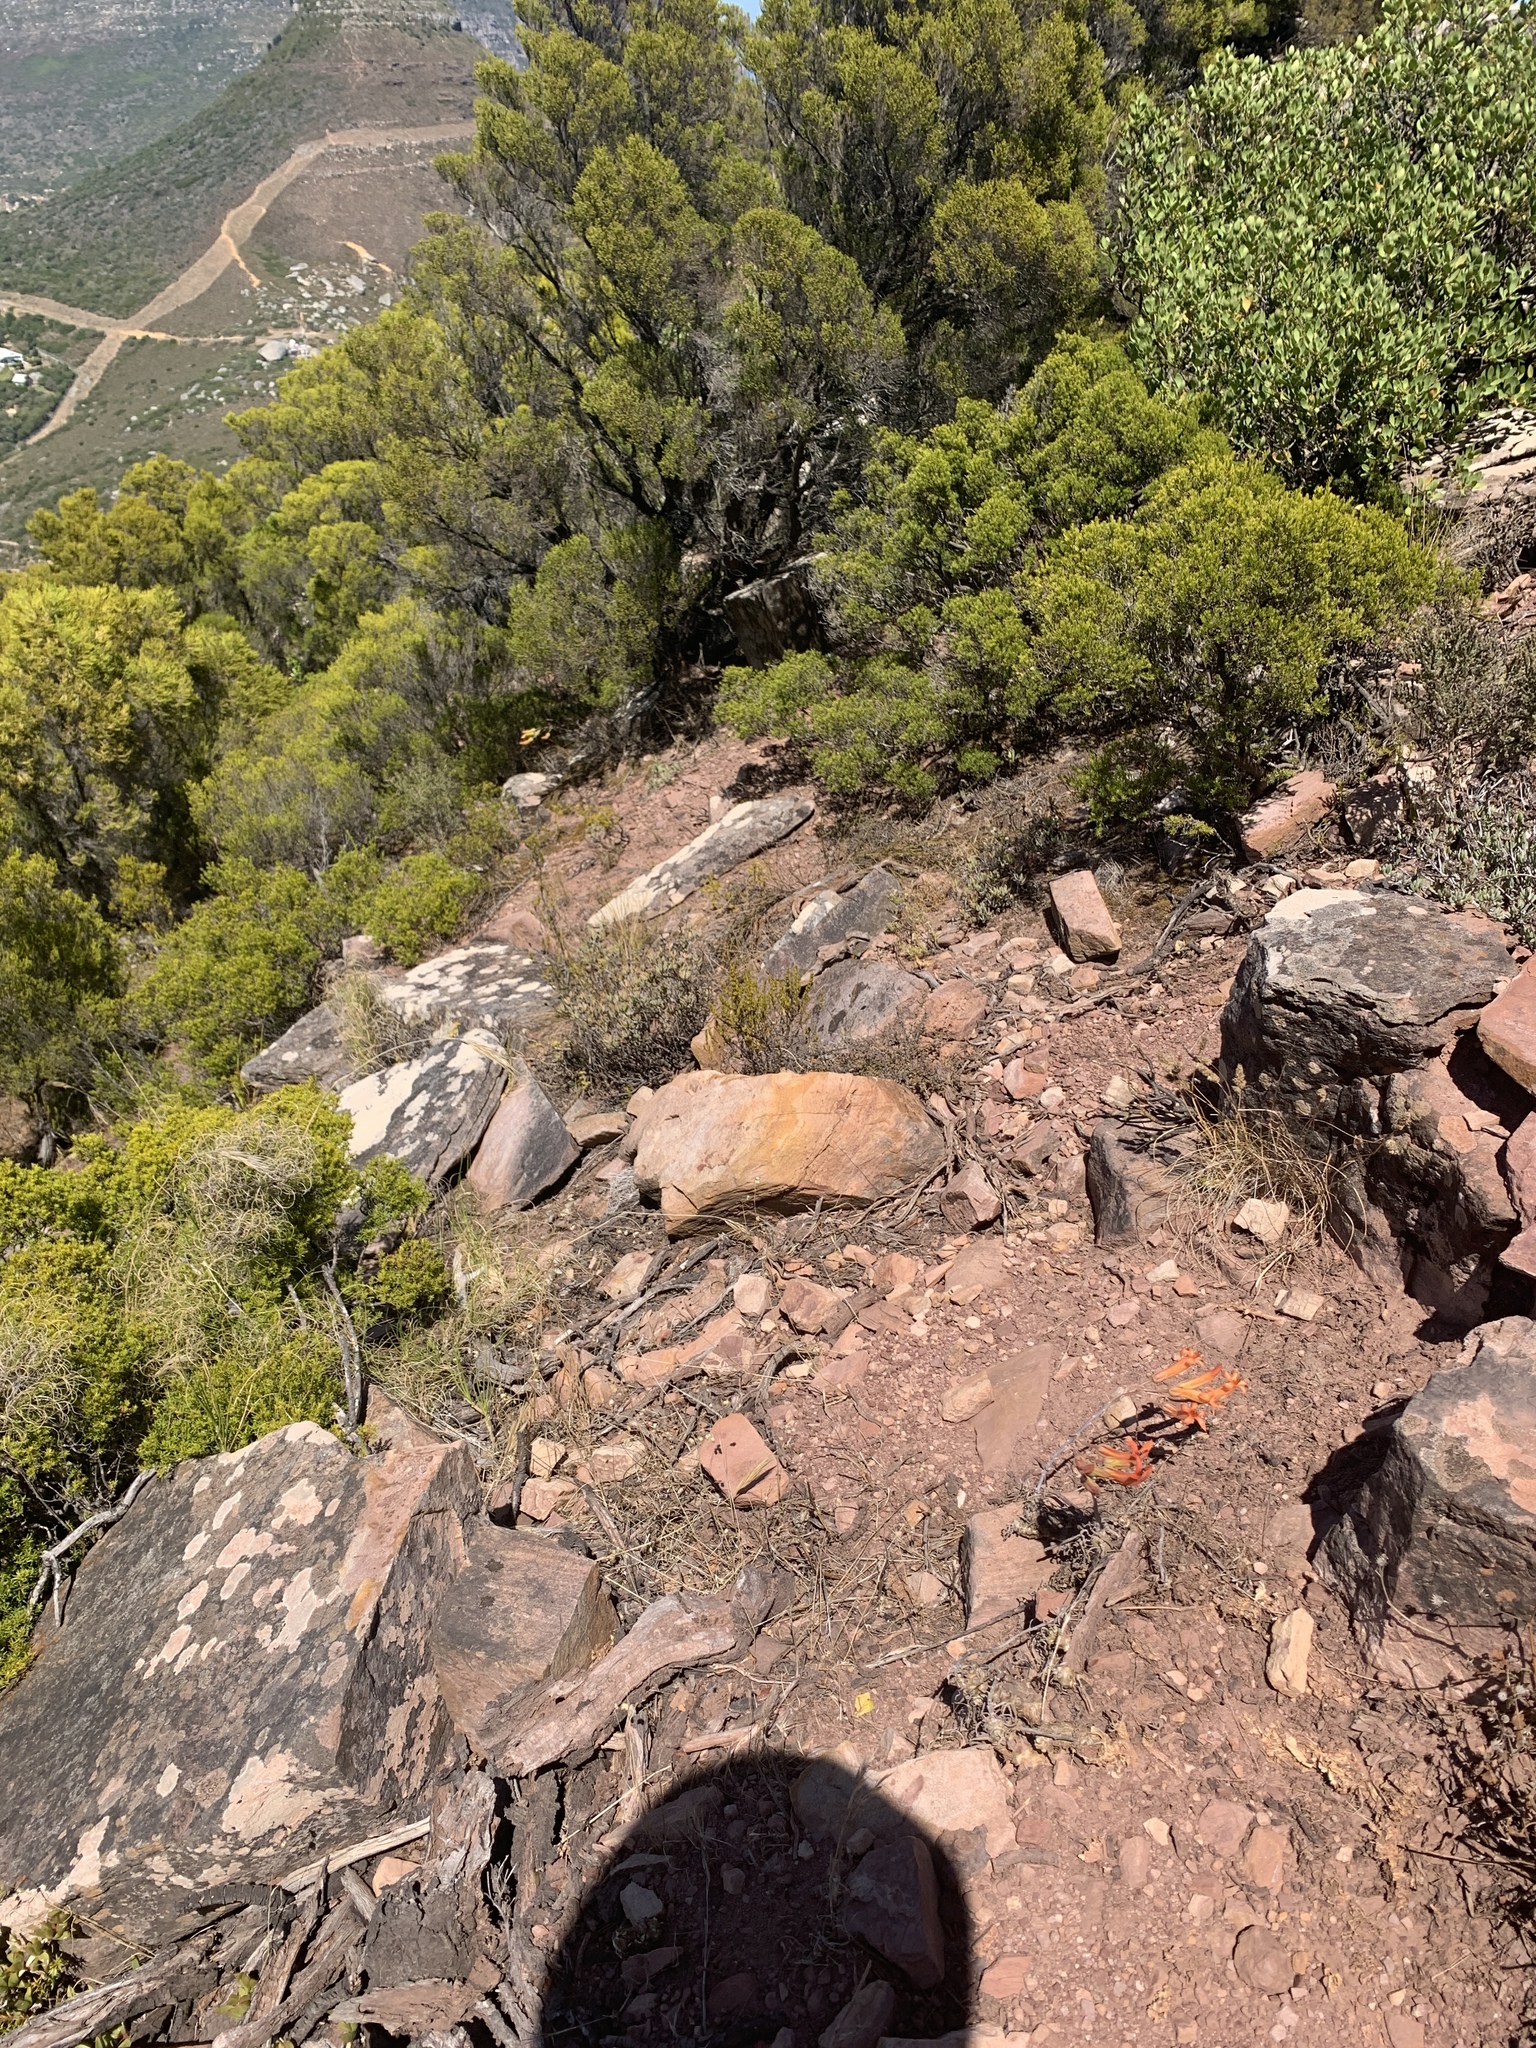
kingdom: Plantae
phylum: Tracheophyta
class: Magnoliopsida
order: Saxifragales
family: Crassulaceae
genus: Tylecodon
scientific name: Tylecodon grandiflorus
